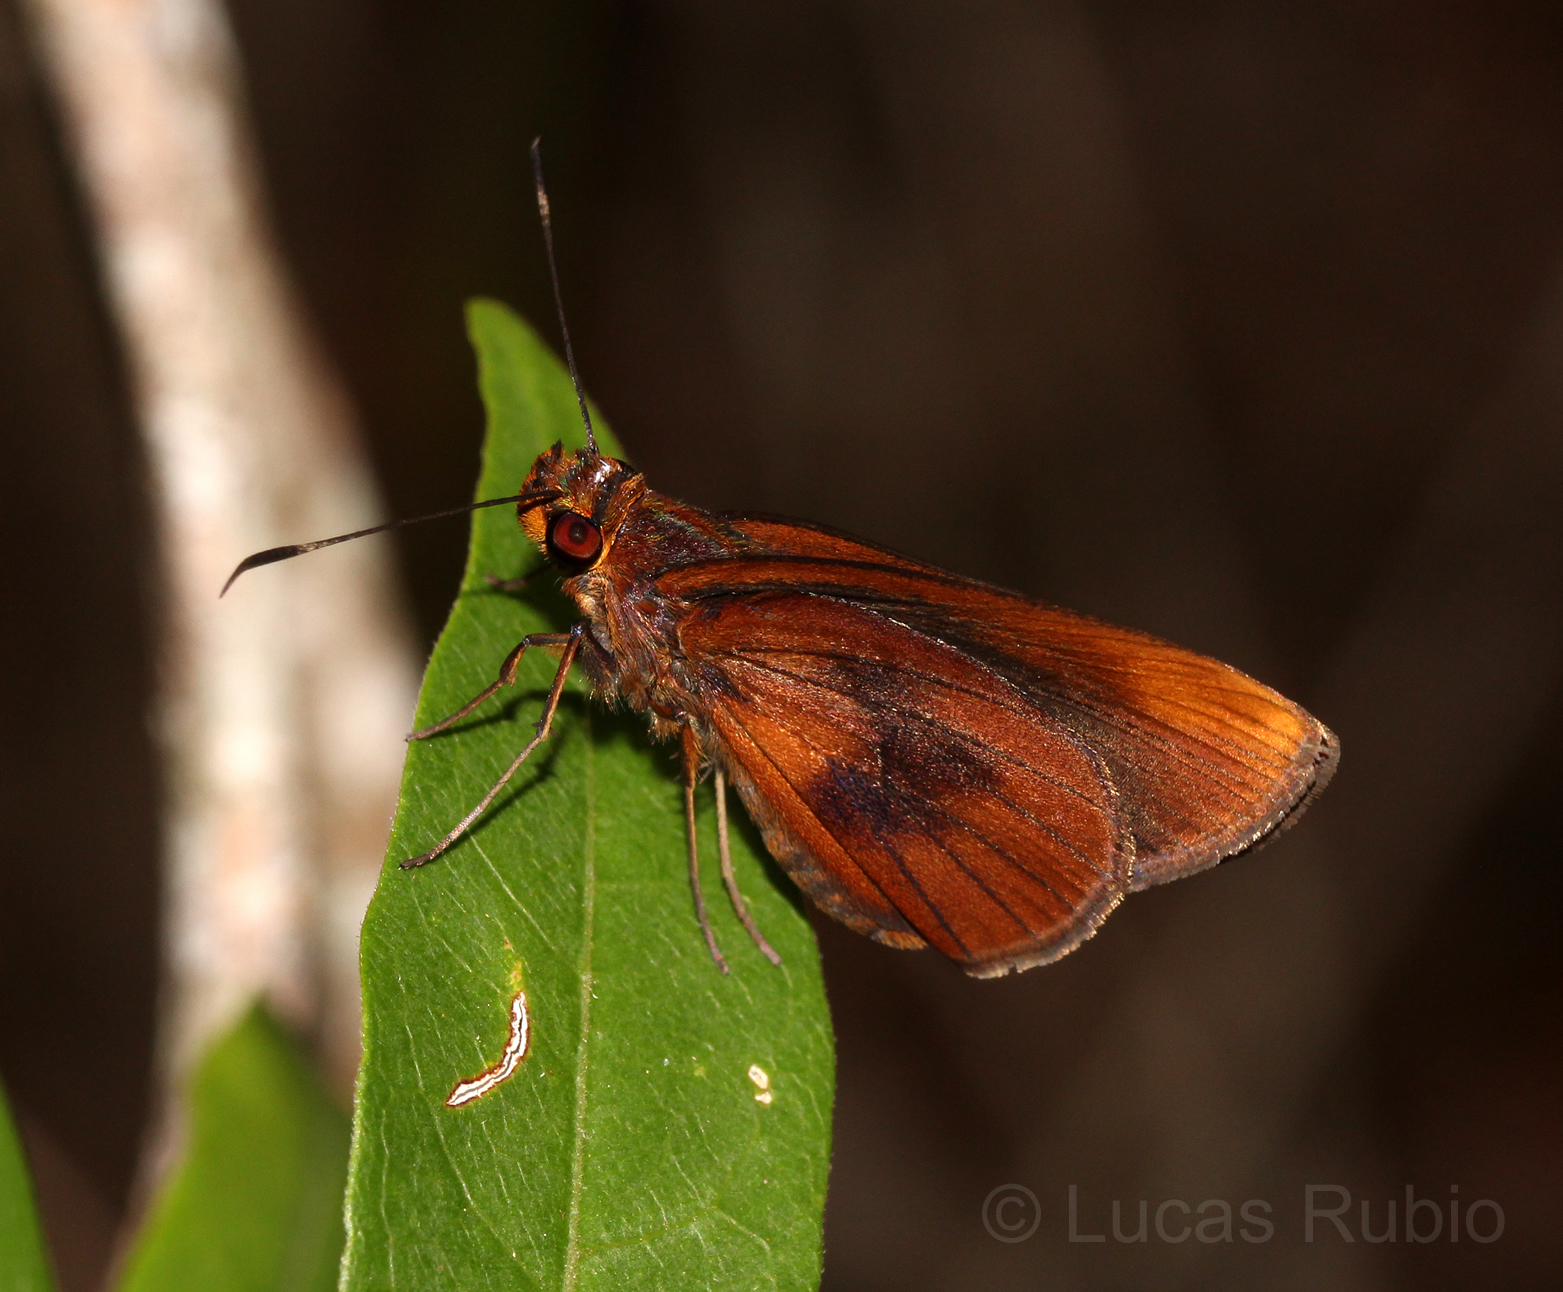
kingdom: Animalia
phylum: Arthropoda
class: Insecta
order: Lepidoptera
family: Hesperiidae
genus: Miltomiges
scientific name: Miltomiges cinnamomea
